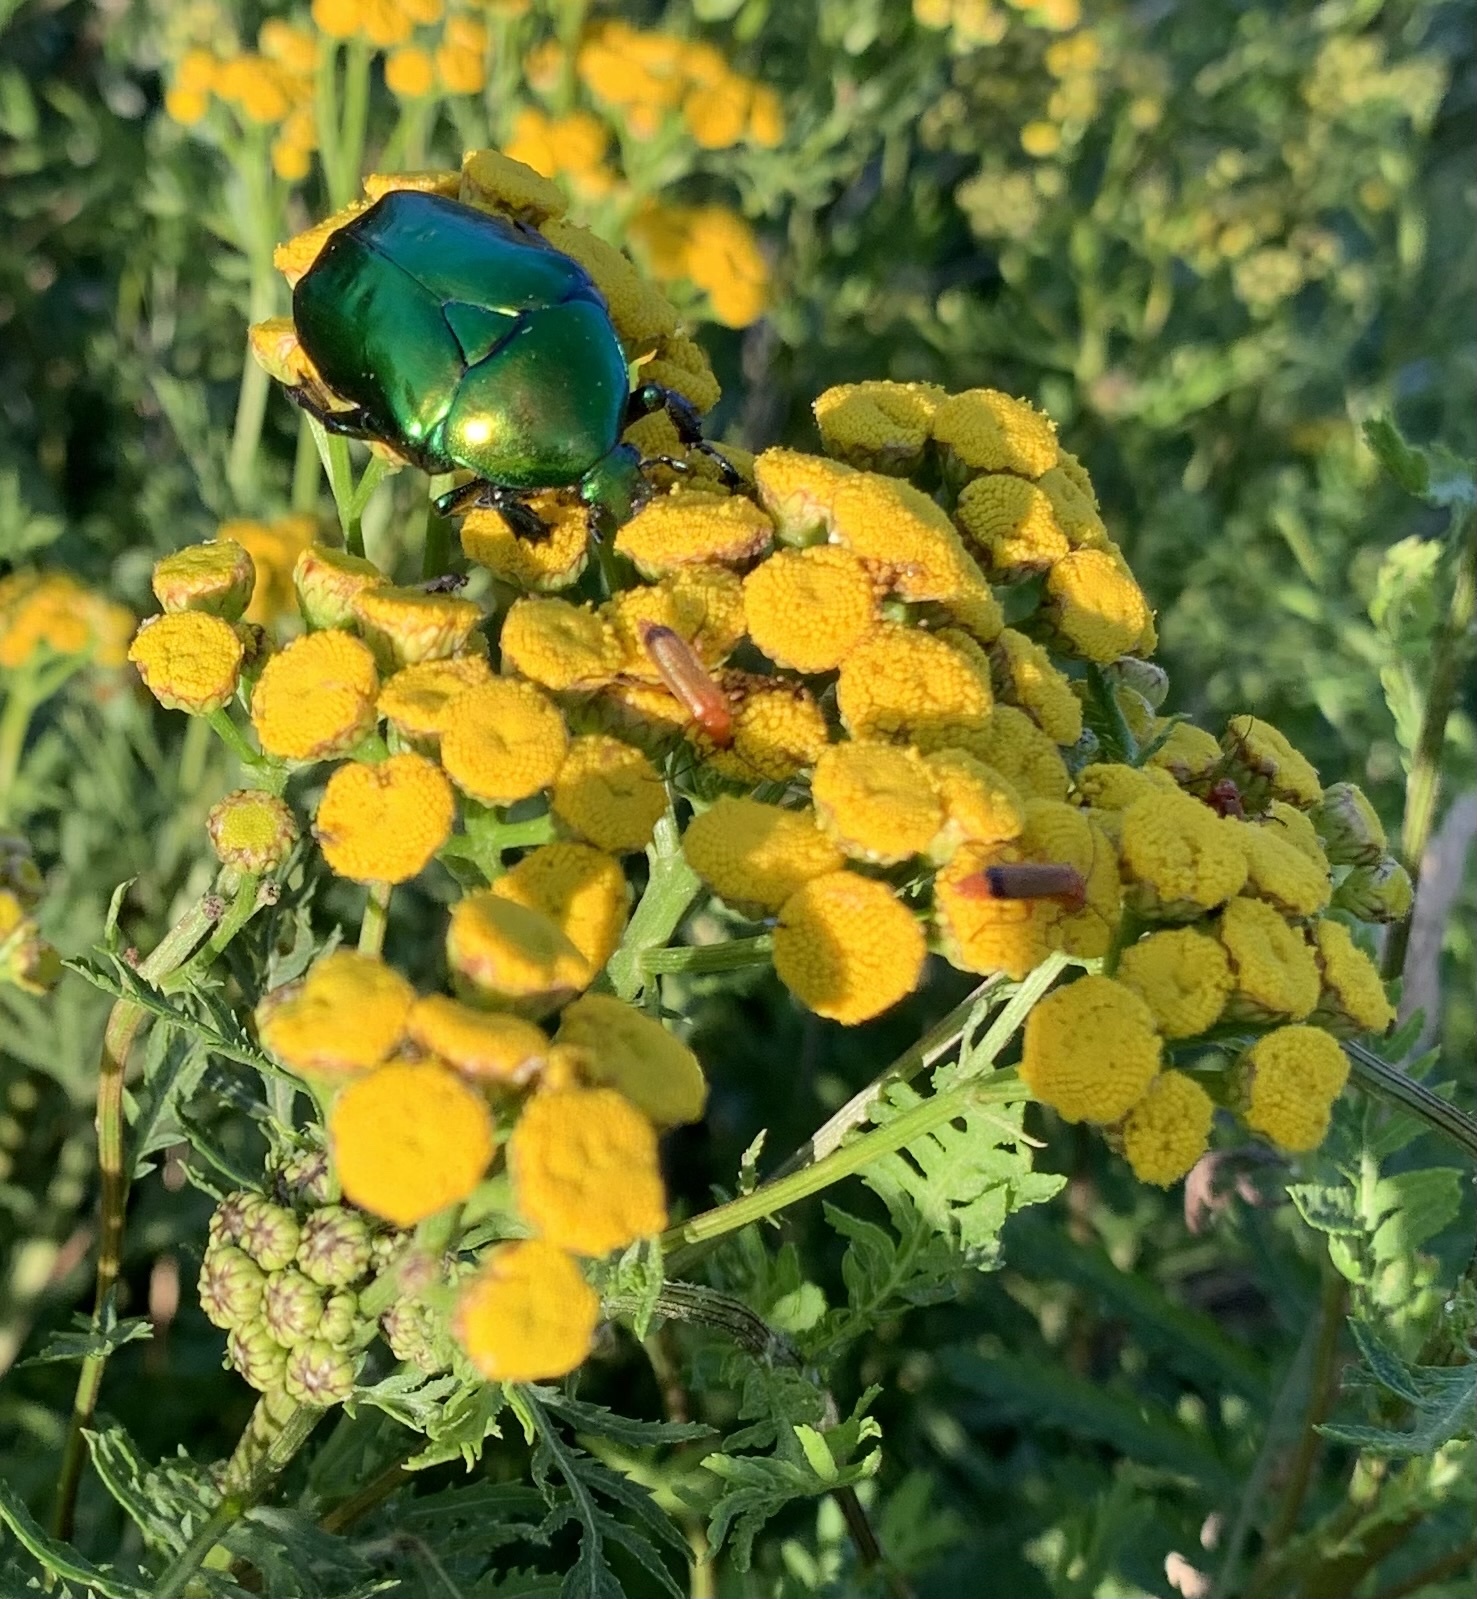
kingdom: Animalia
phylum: Arthropoda
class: Insecta
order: Coleoptera
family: Scarabaeidae
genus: Protaetia
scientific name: Protaetia speciosissima
